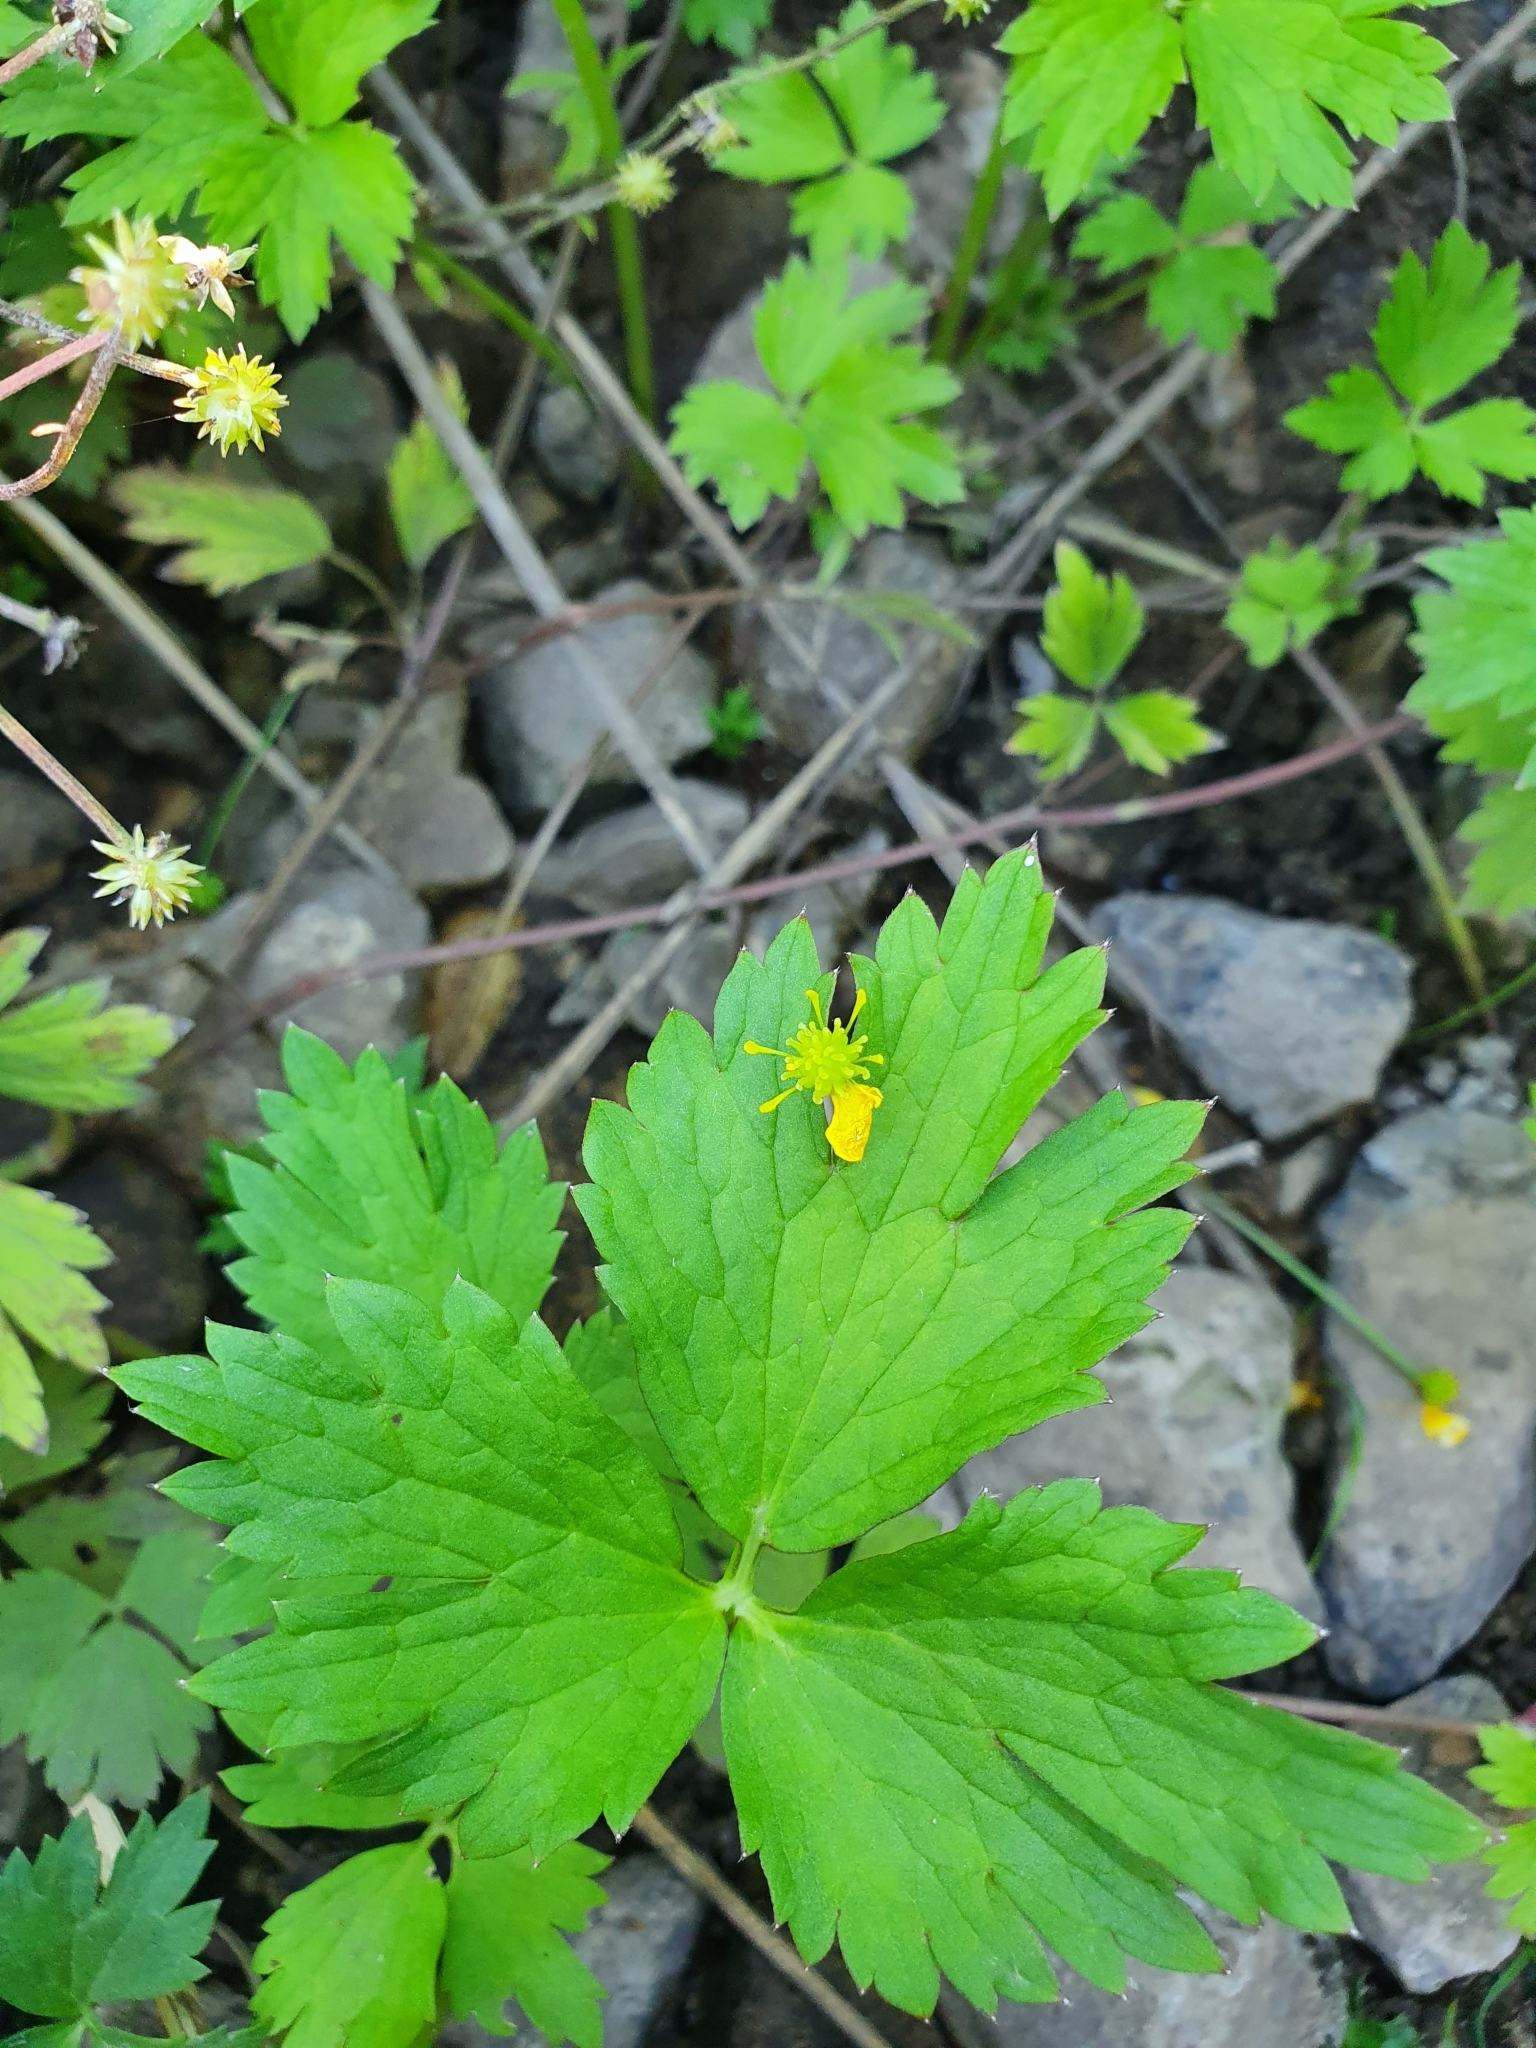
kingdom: Plantae
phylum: Tracheophyta
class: Magnoliopsida
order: Ranunculales
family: Ranunculaceae
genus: Ranunculus
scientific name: Ranunculus repens
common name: Creeping buttercup
